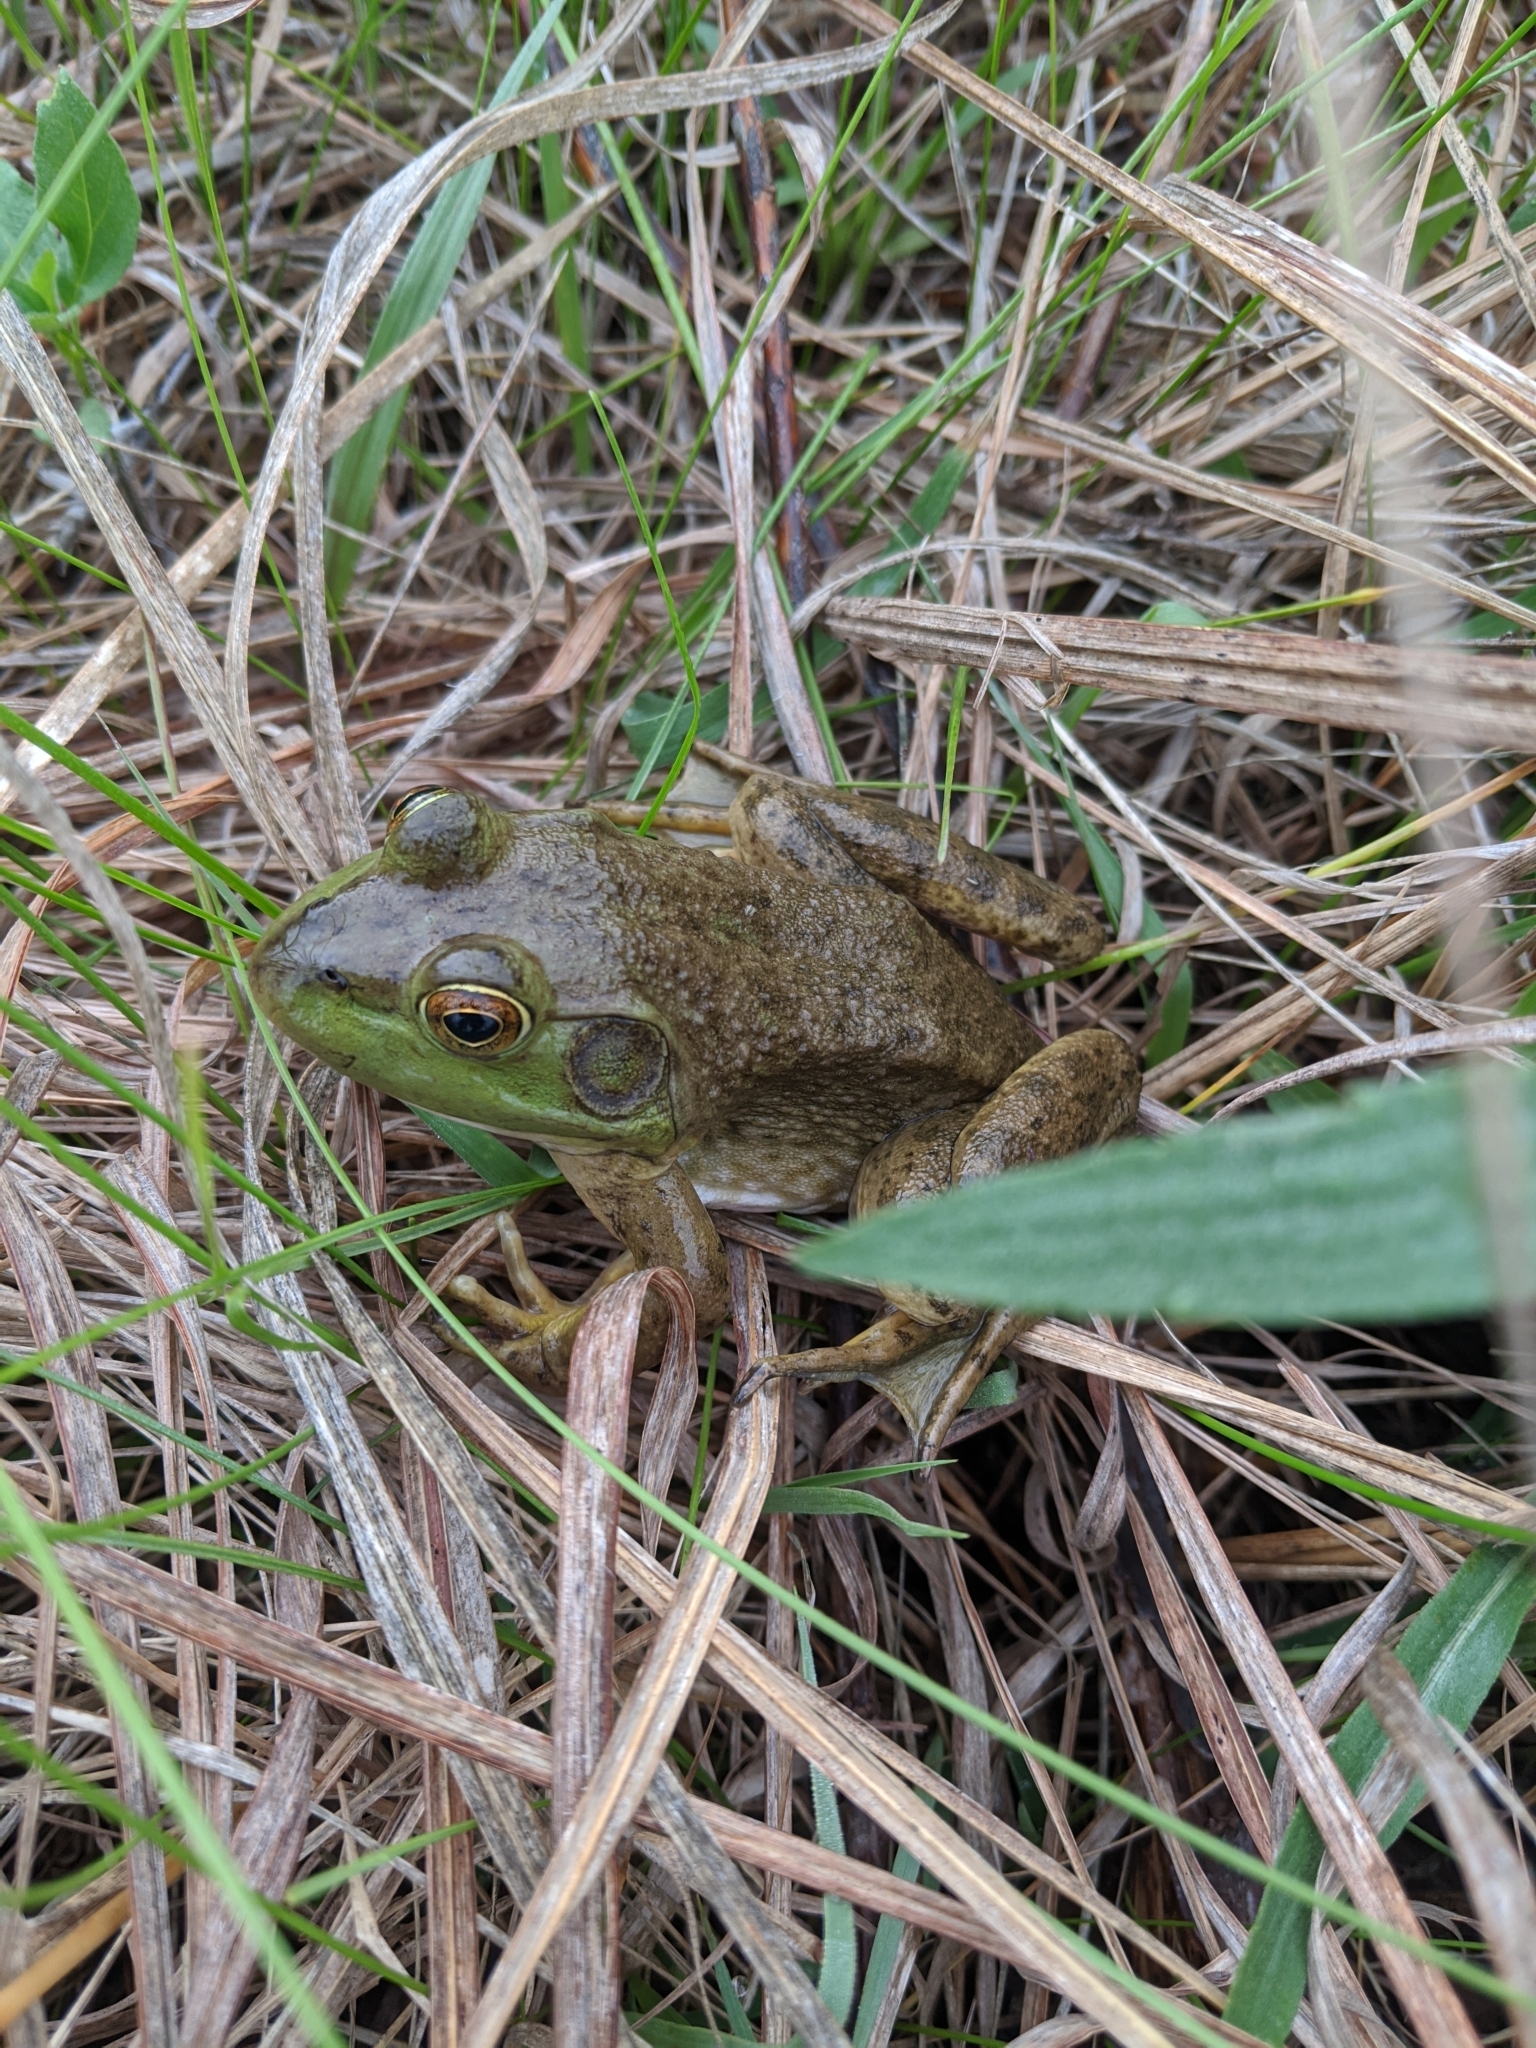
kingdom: Animalia
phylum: Chordata
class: Amphibia
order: Anura
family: Ranidae
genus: Lithobates
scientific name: Lithobates catesbeianus
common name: American bullfrog
